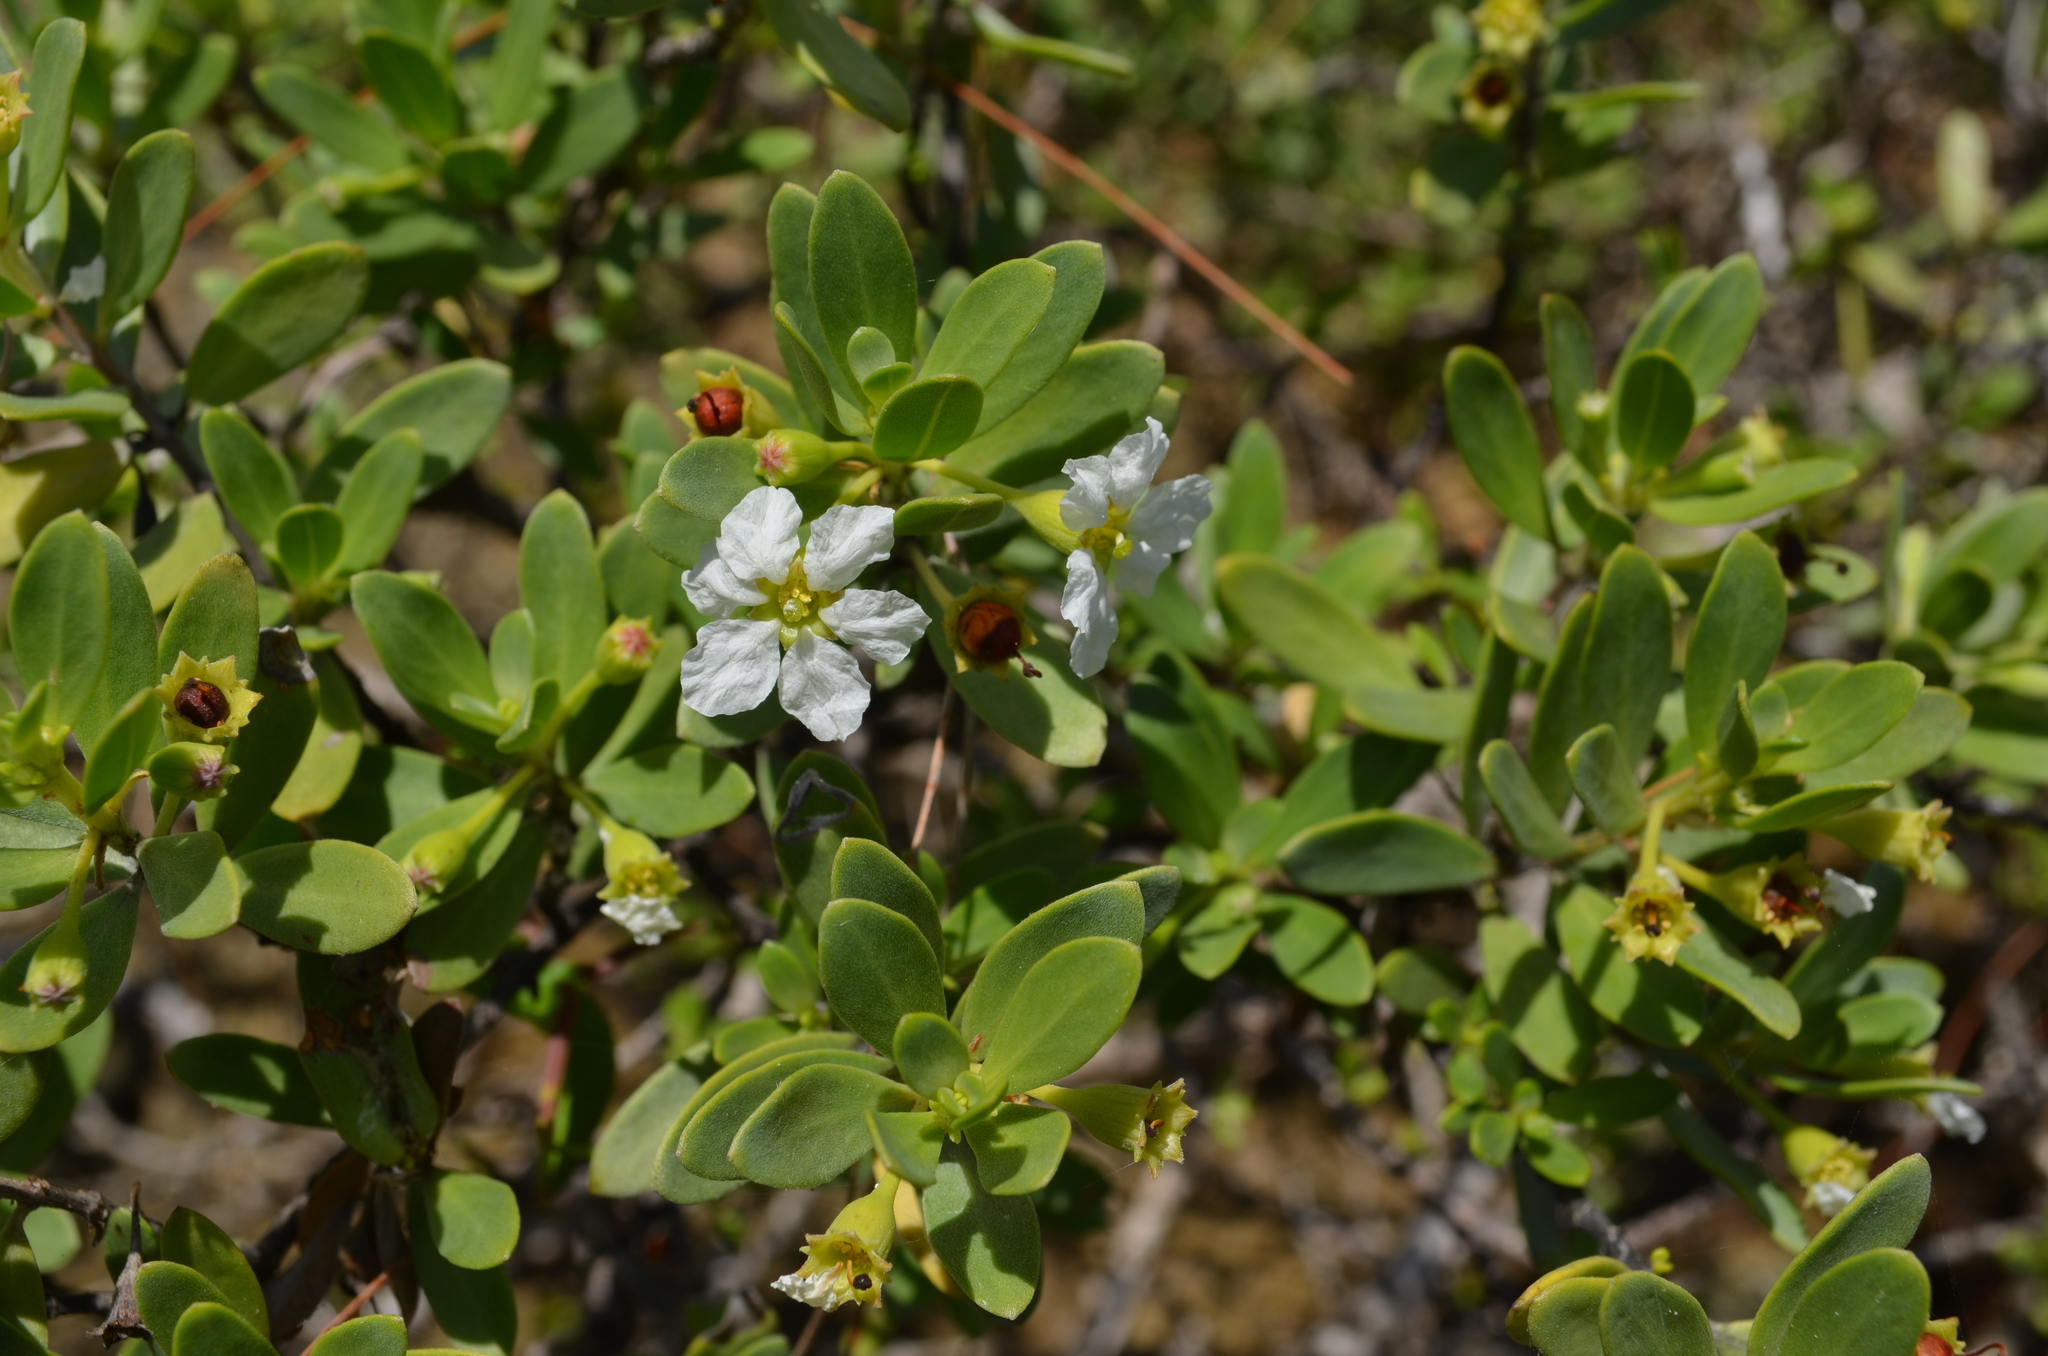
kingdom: Plantae
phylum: Tracheophyta
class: Magnoliopsida
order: Myrtales
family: Lythraceae
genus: Pemphis
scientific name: Pemphis acidula
